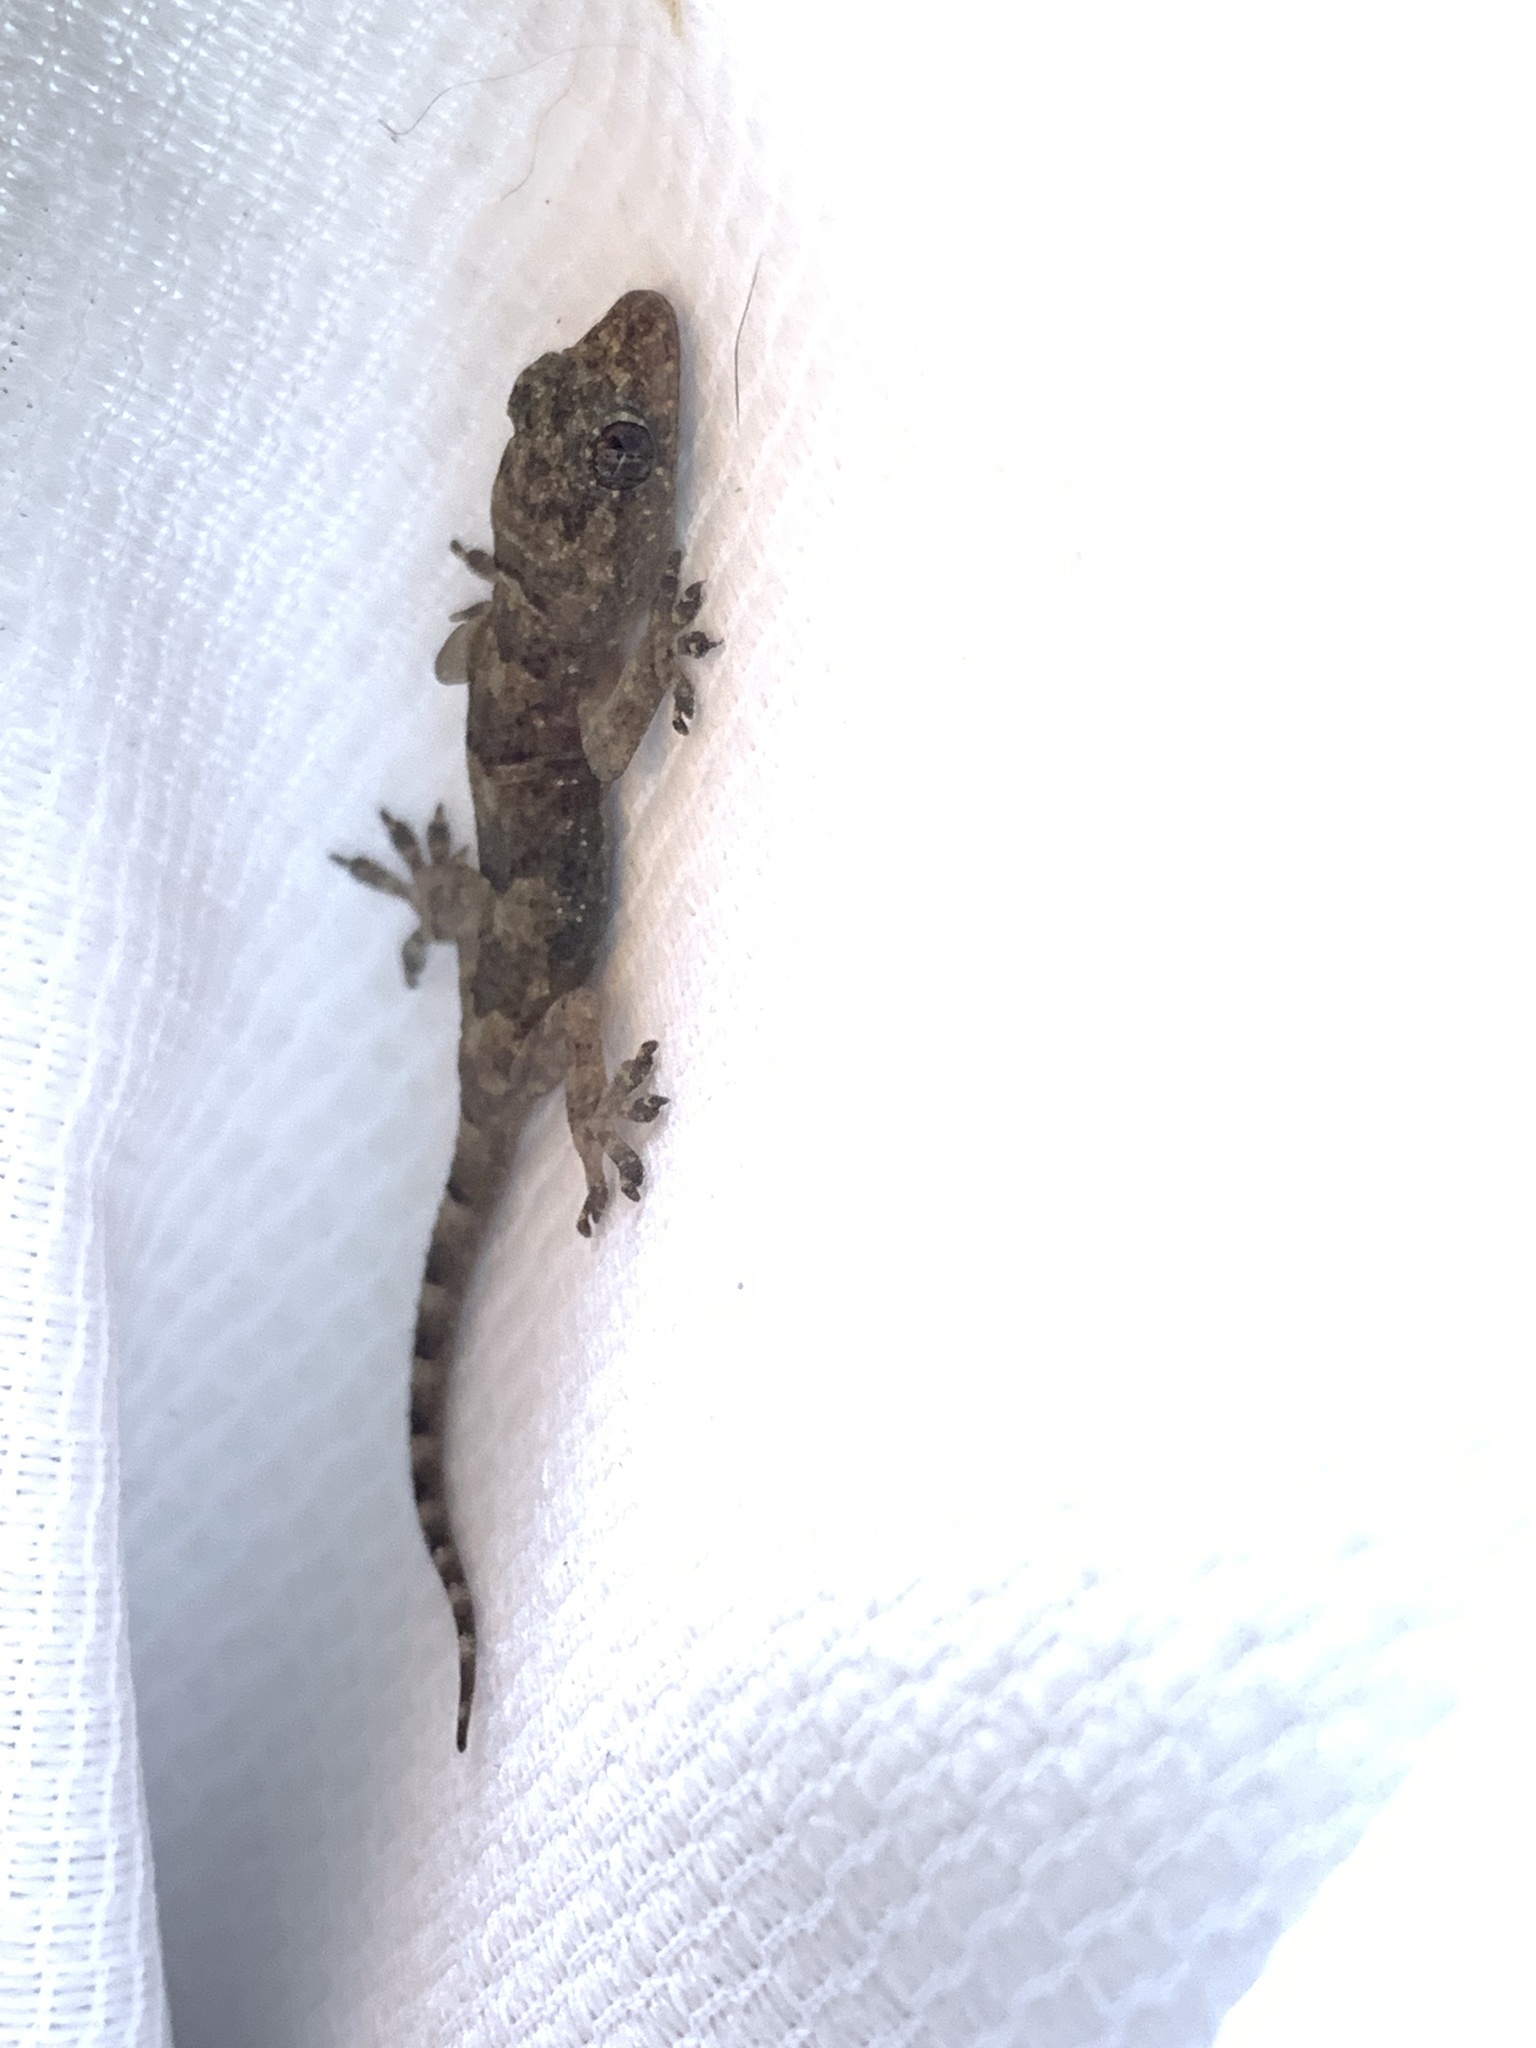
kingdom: Animalia
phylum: Chordata
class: Squamata
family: Gekkonidae
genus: Hemidactylus
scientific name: Hemidactylus mabouia
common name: House gecko
